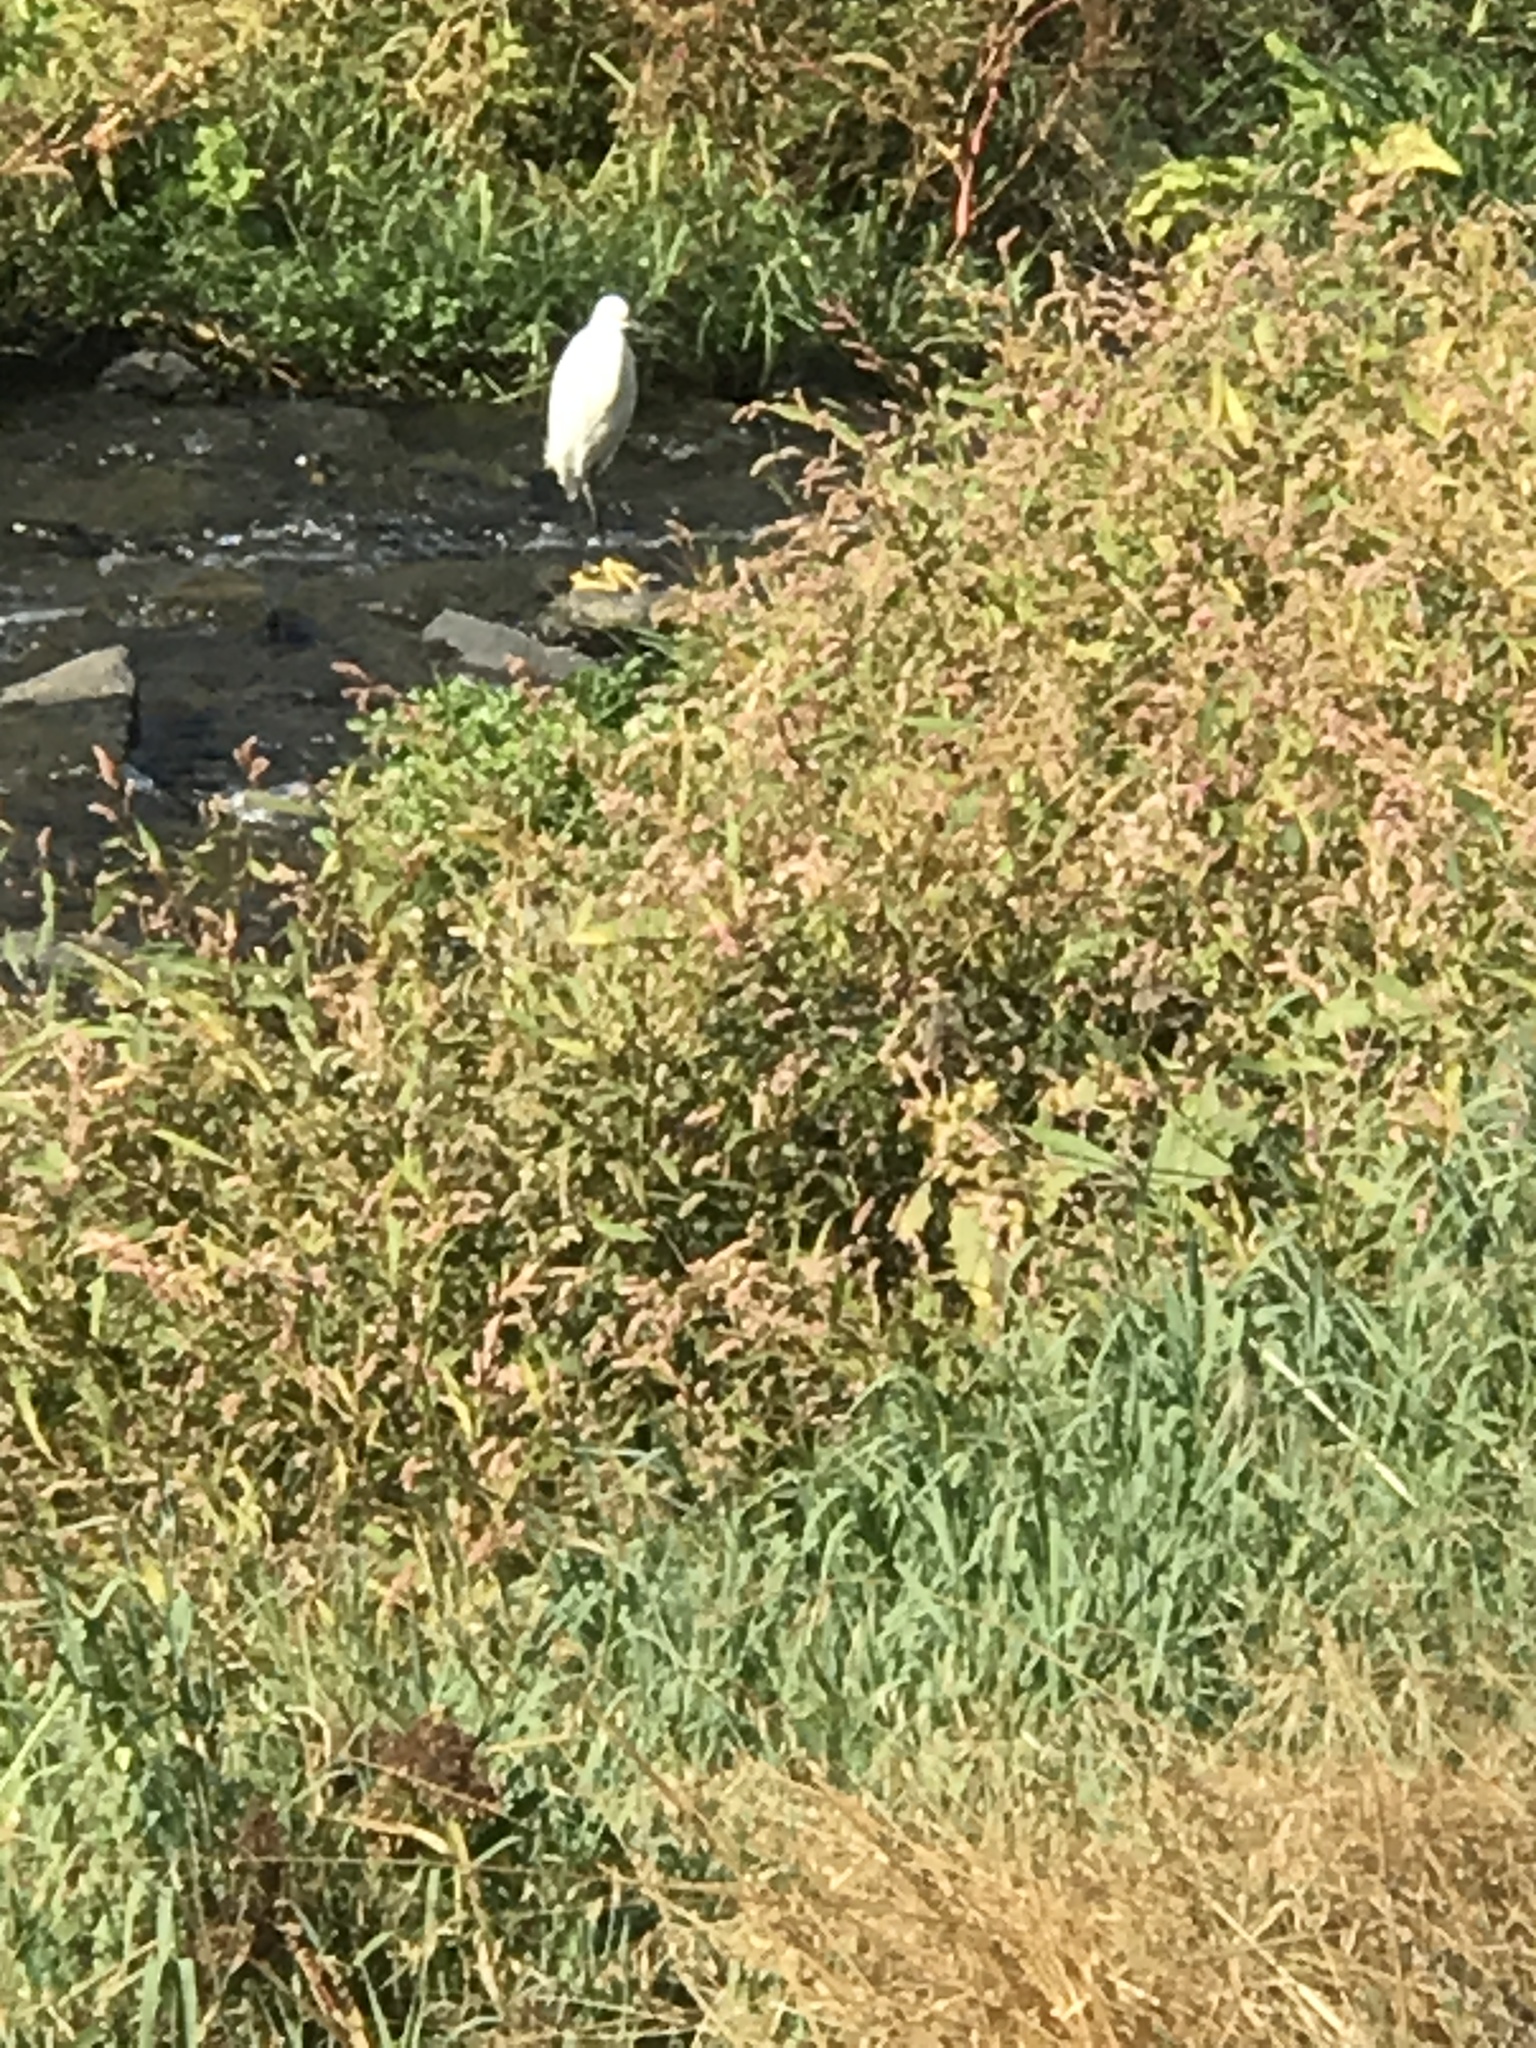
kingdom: Animalia
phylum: Chordata
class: Aves
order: Pelecaniformes
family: Ardeidae
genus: Egretta
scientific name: Egretta thula
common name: Snowy egret
